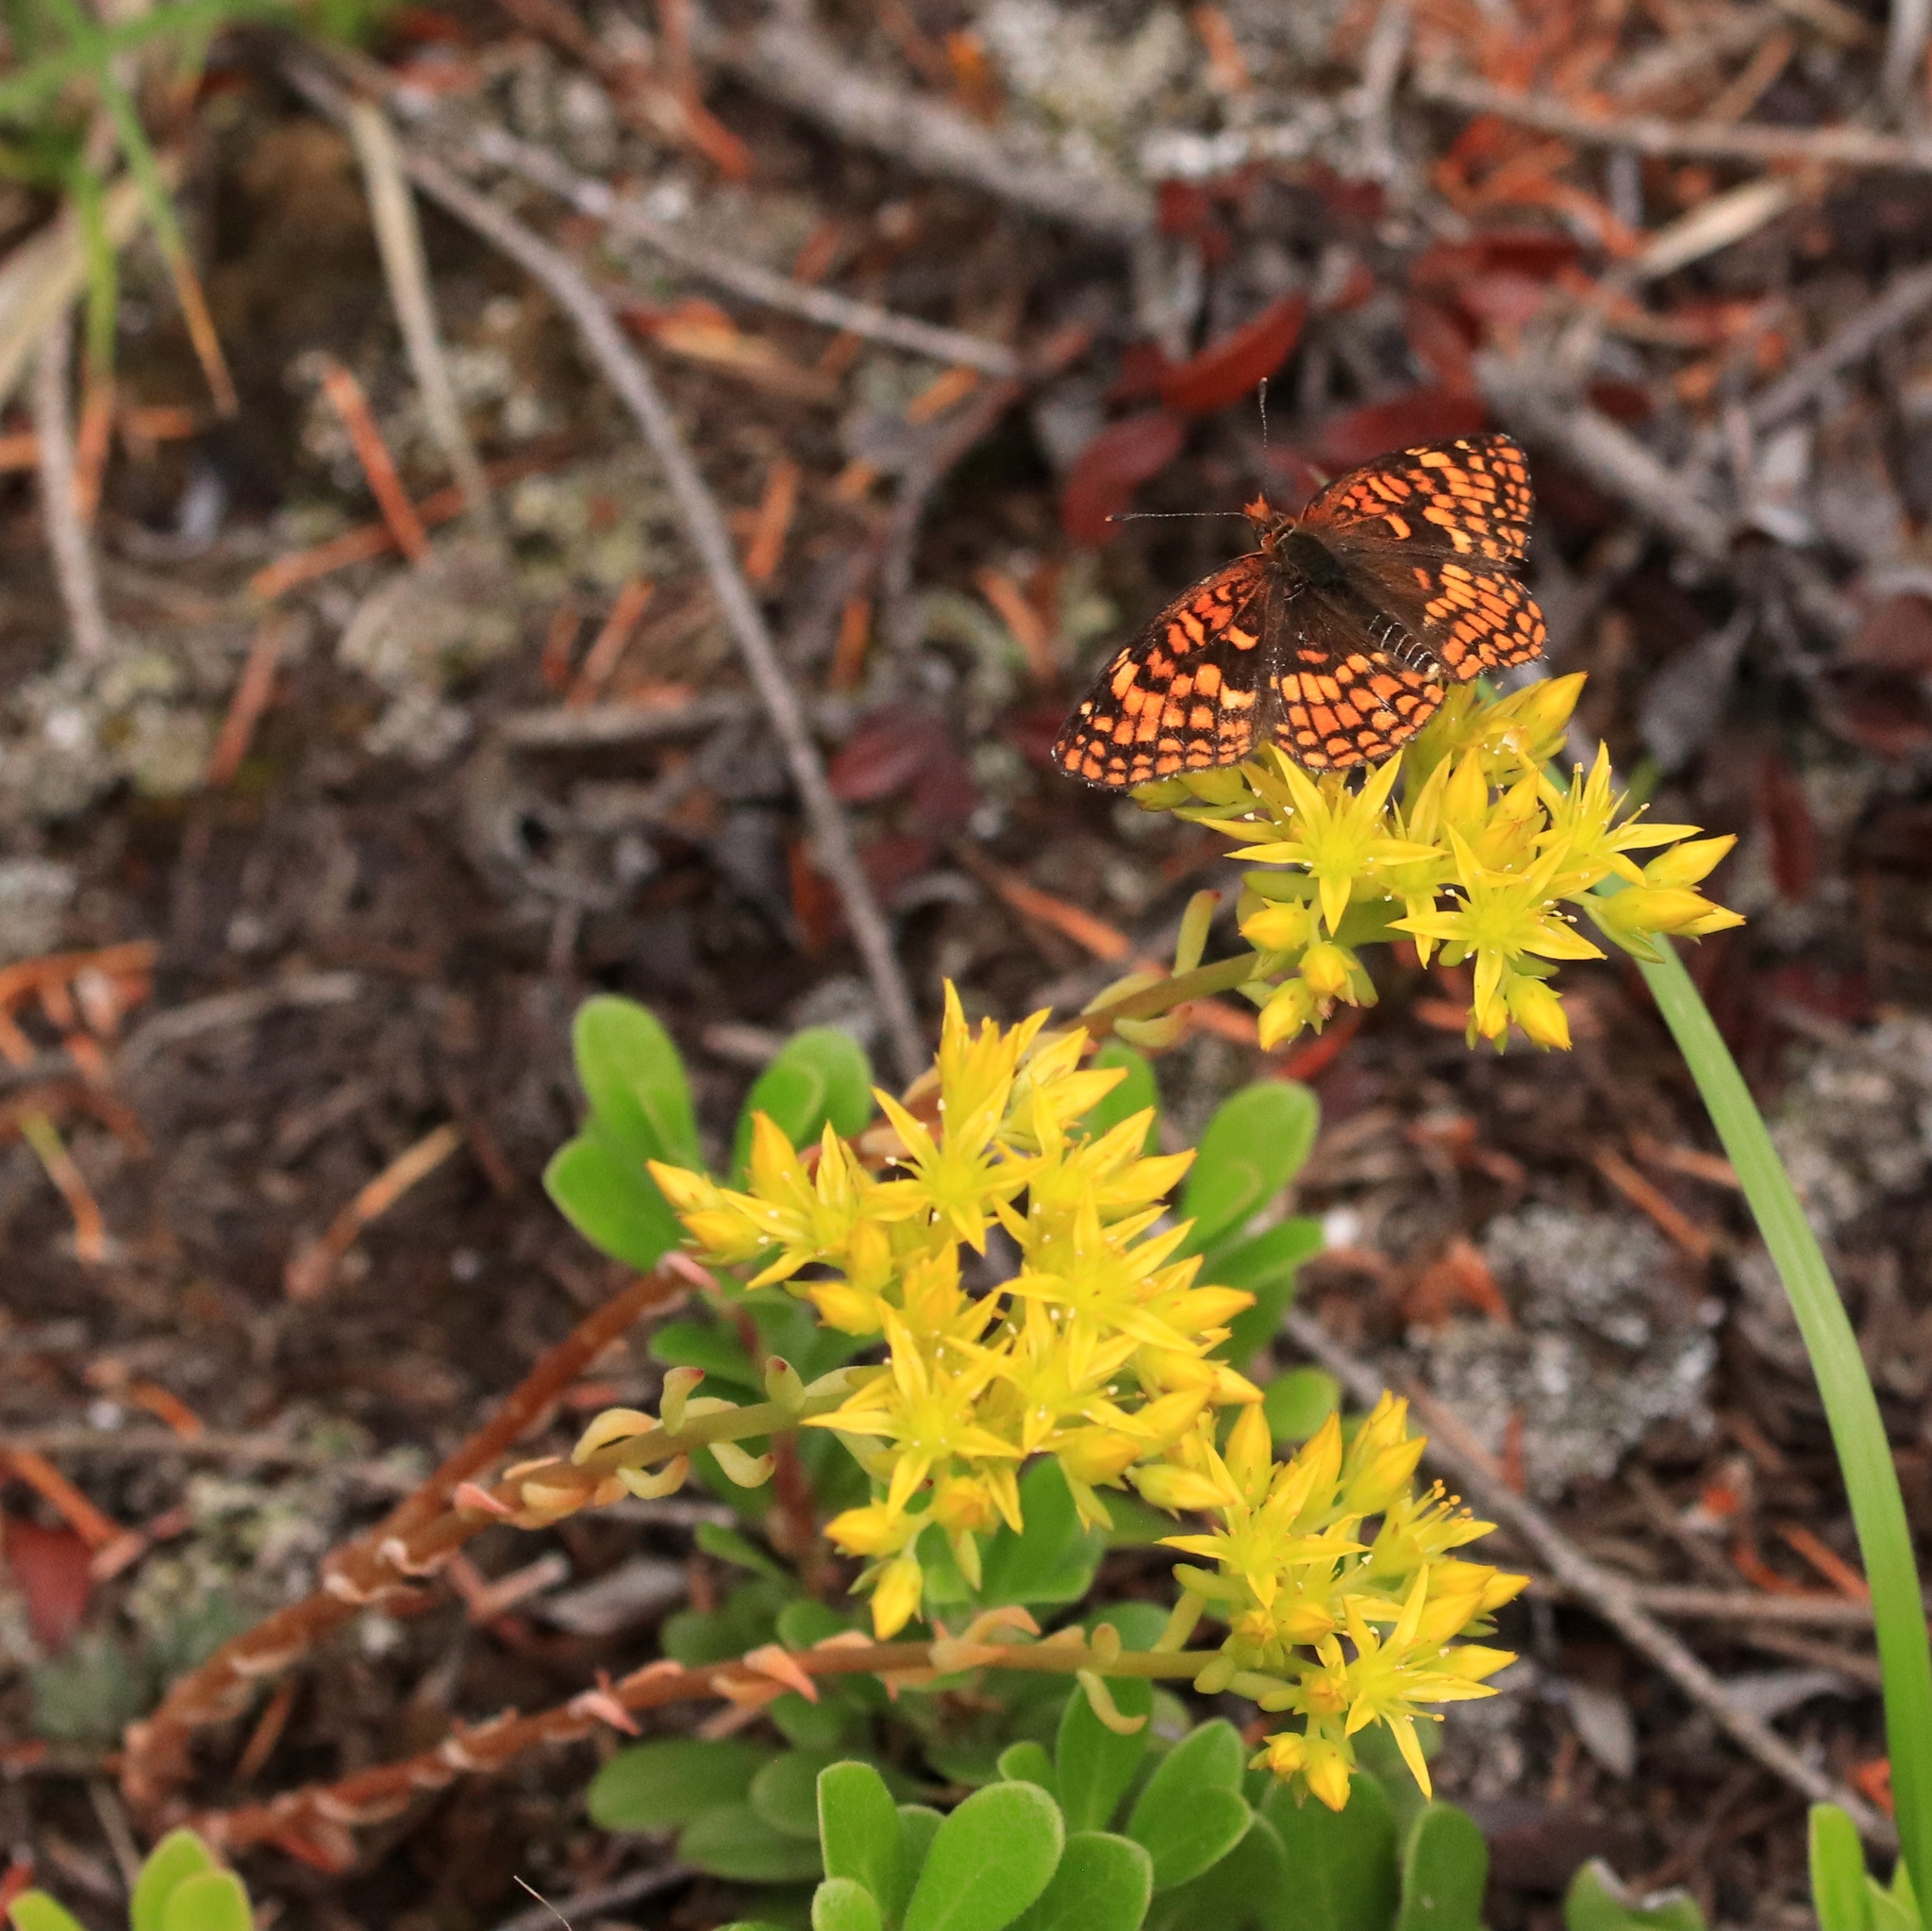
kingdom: Animalia
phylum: Arthropoda
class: Insecta
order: Lepidoptera
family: Nymphalidae
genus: Chlosyne
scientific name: Chlosyne palla
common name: Northern checkerspot
